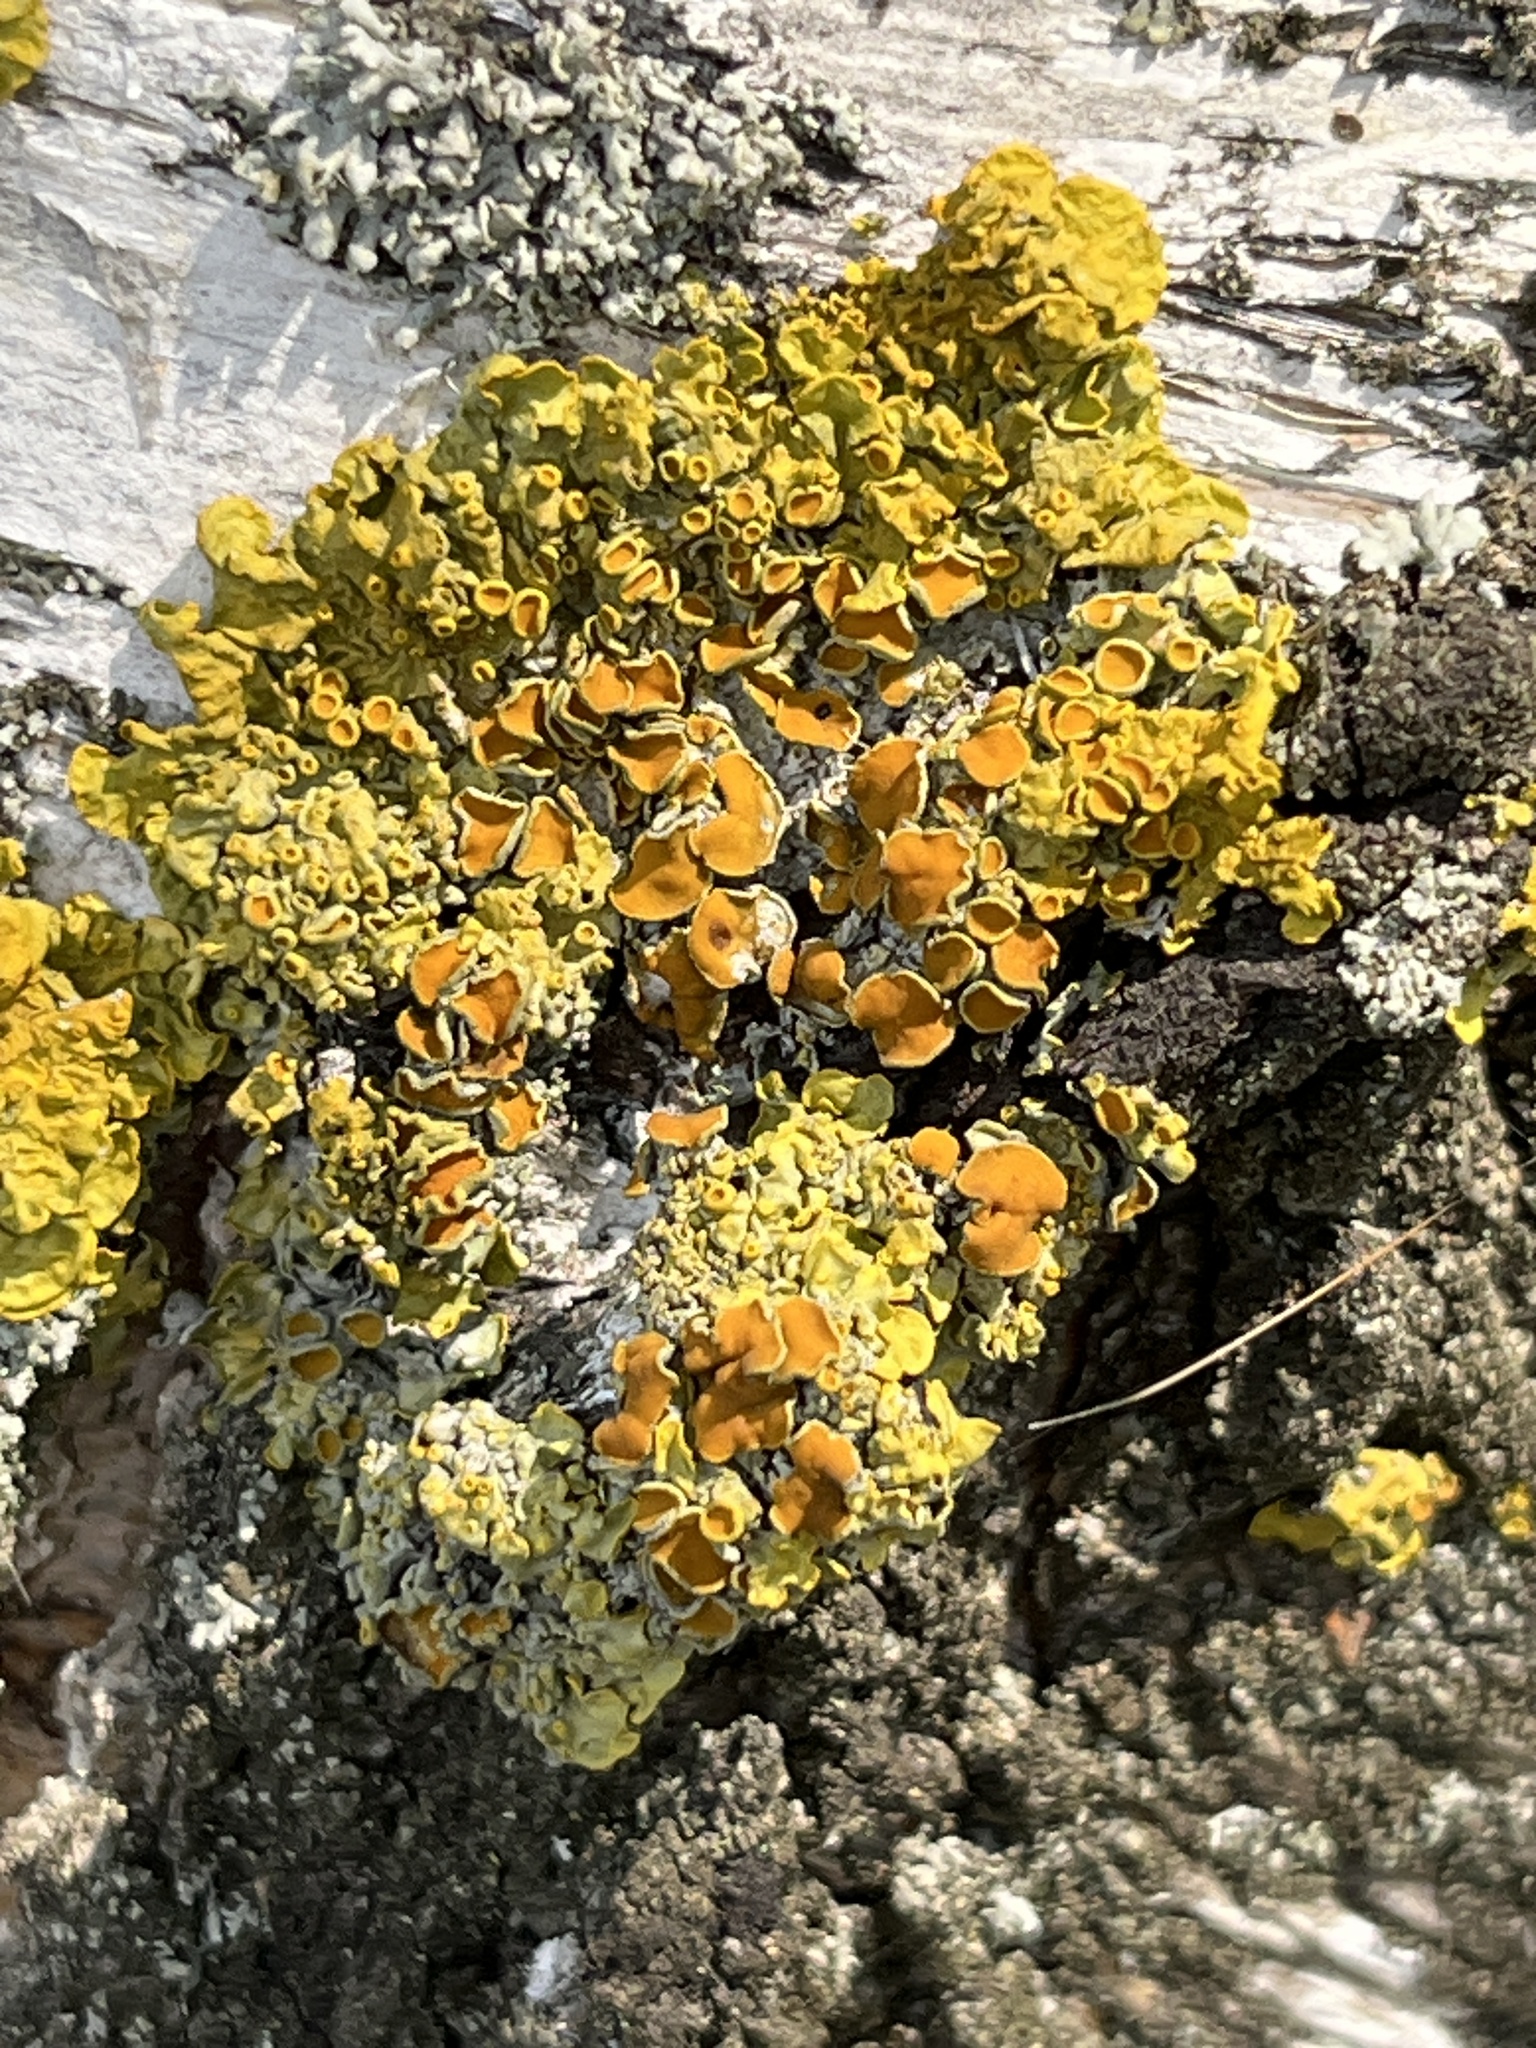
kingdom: Fungi
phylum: Ascomycota
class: Lecanoromycetes
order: Teloschistales
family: Teloschistaceae
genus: Xanthoria
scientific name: Xanthoria parietina
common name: Common orange lichen
